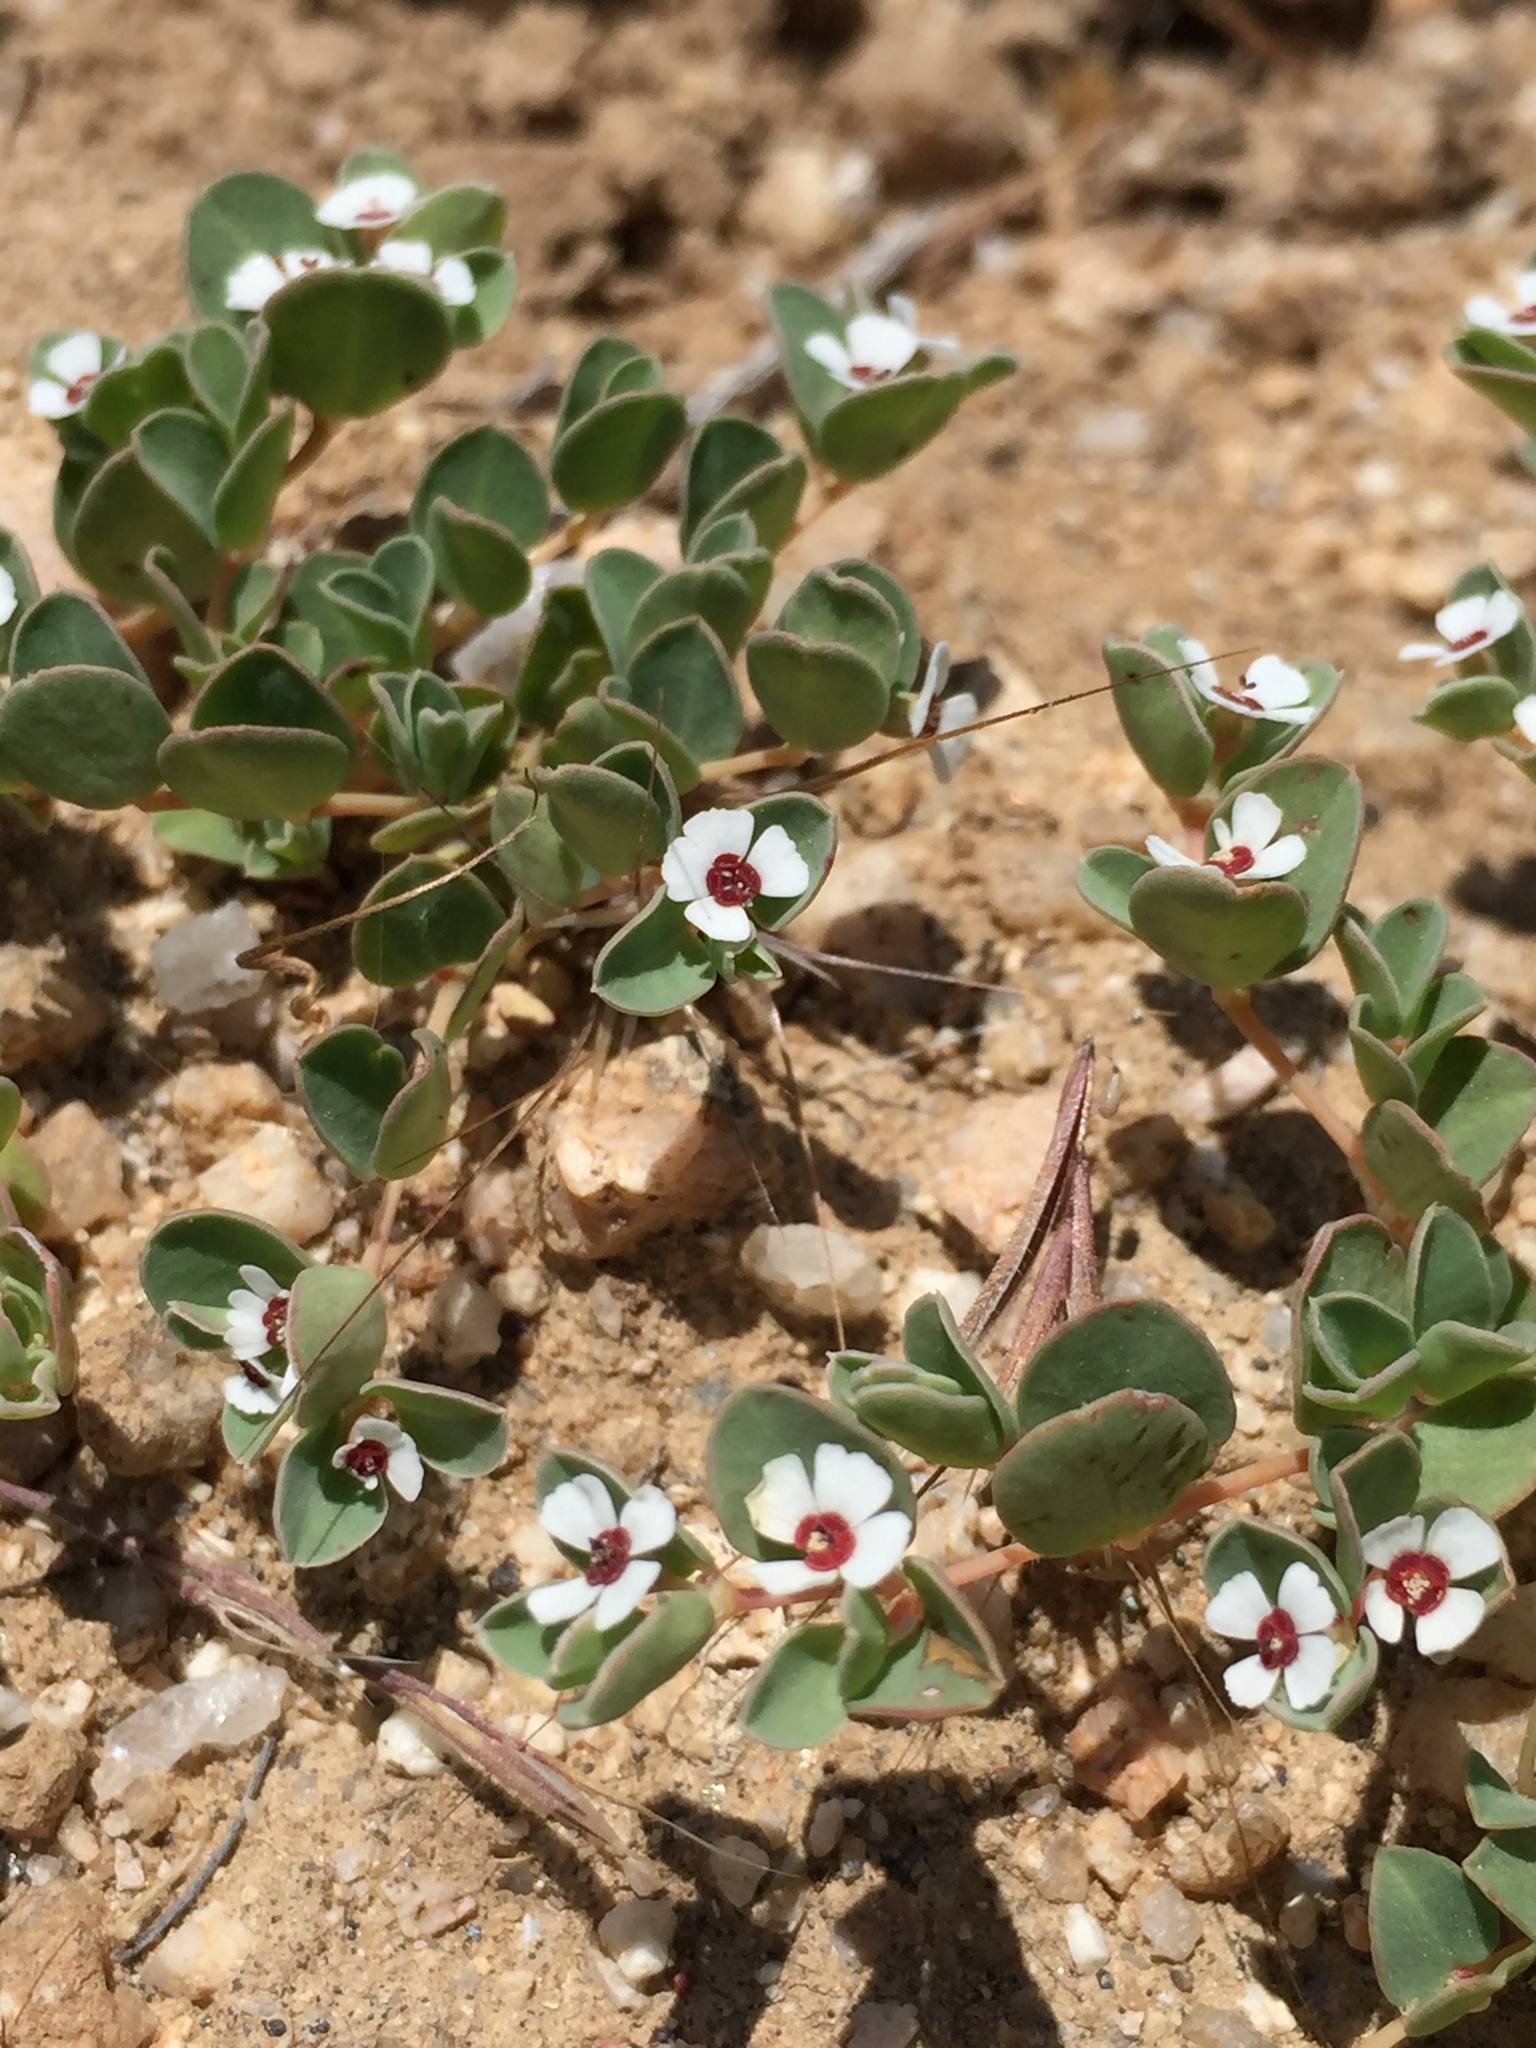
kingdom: Plantae
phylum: Tracheophyta
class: Magnoliopsida
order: Malpighiales
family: Euphorbiaceae
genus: Euphorbia
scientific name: Euphorbia albomarginata
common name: Whitemargin sandmat
